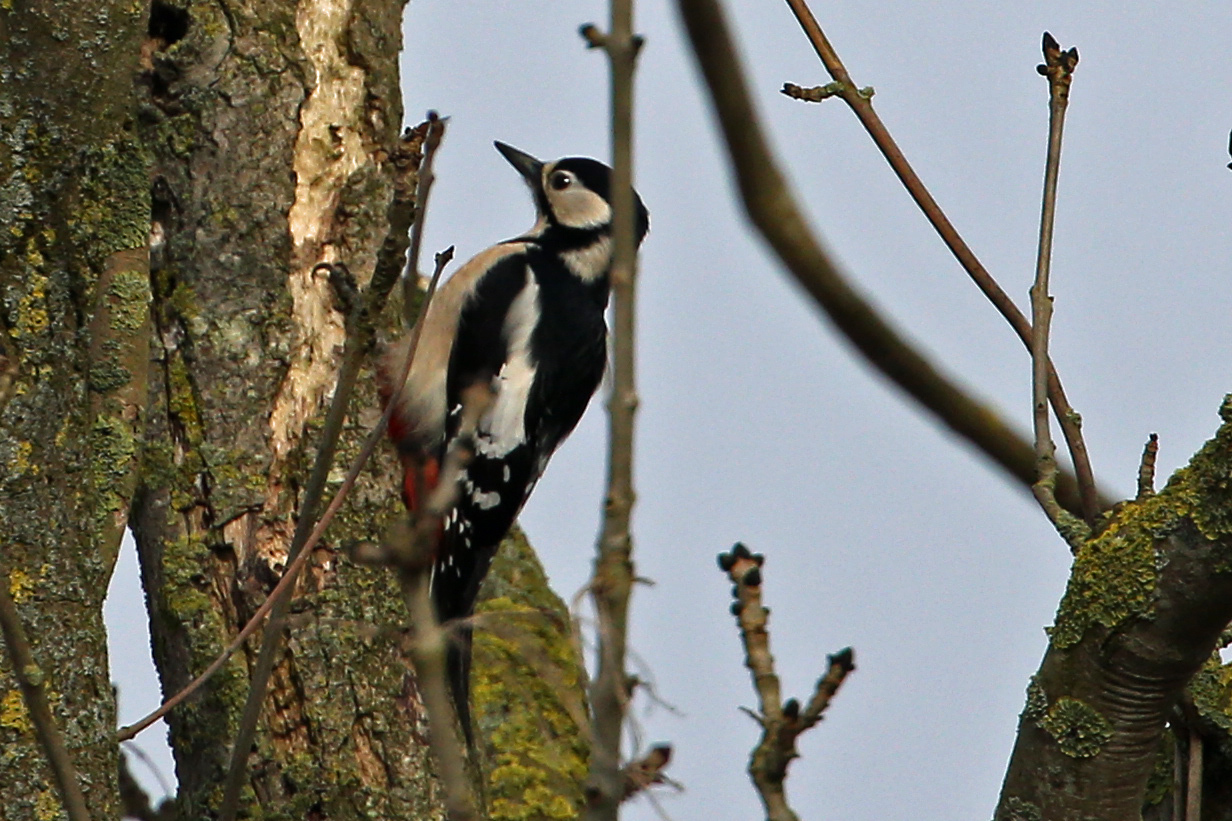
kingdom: Animalia
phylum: Chordata
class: Aves
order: Piciformes
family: Picidae
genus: Dendrocopos
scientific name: Dendrocopos major
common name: Great spotted woodpecker
